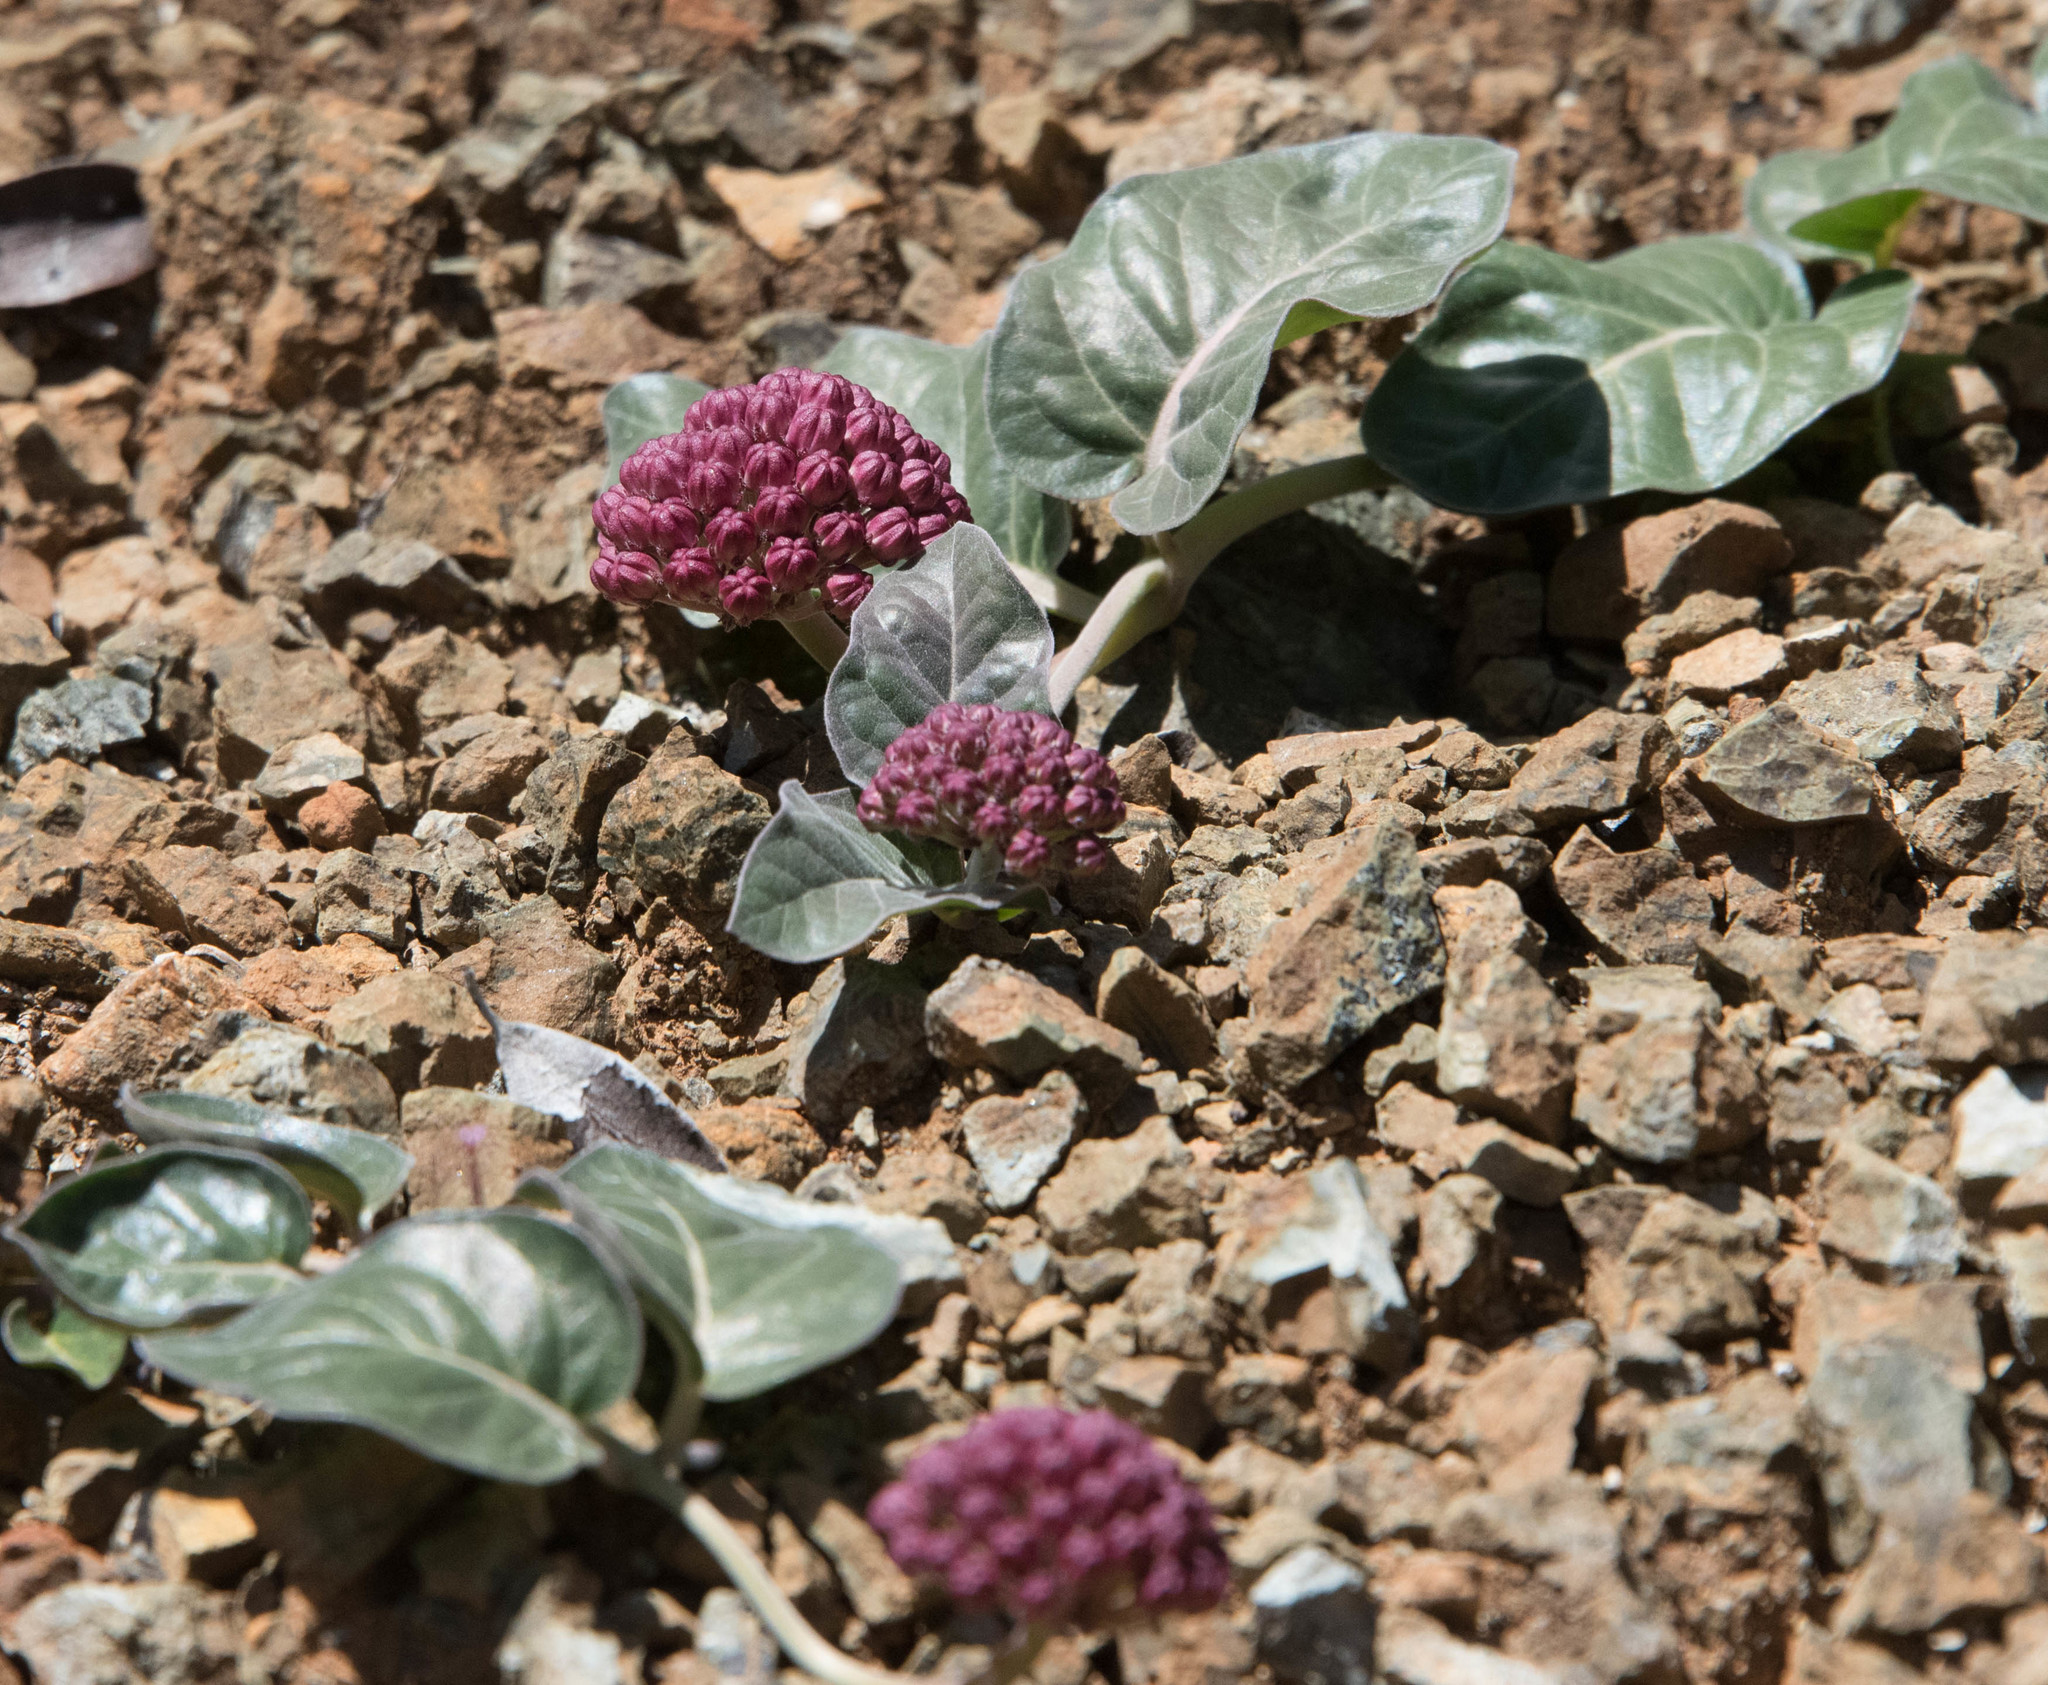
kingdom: Plantae
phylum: Tracheophyta
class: Magnoliopsida
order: Gentianales
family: Apocynaceae
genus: Asclepias
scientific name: Asclepias solanoana
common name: Serpentine milkweed
